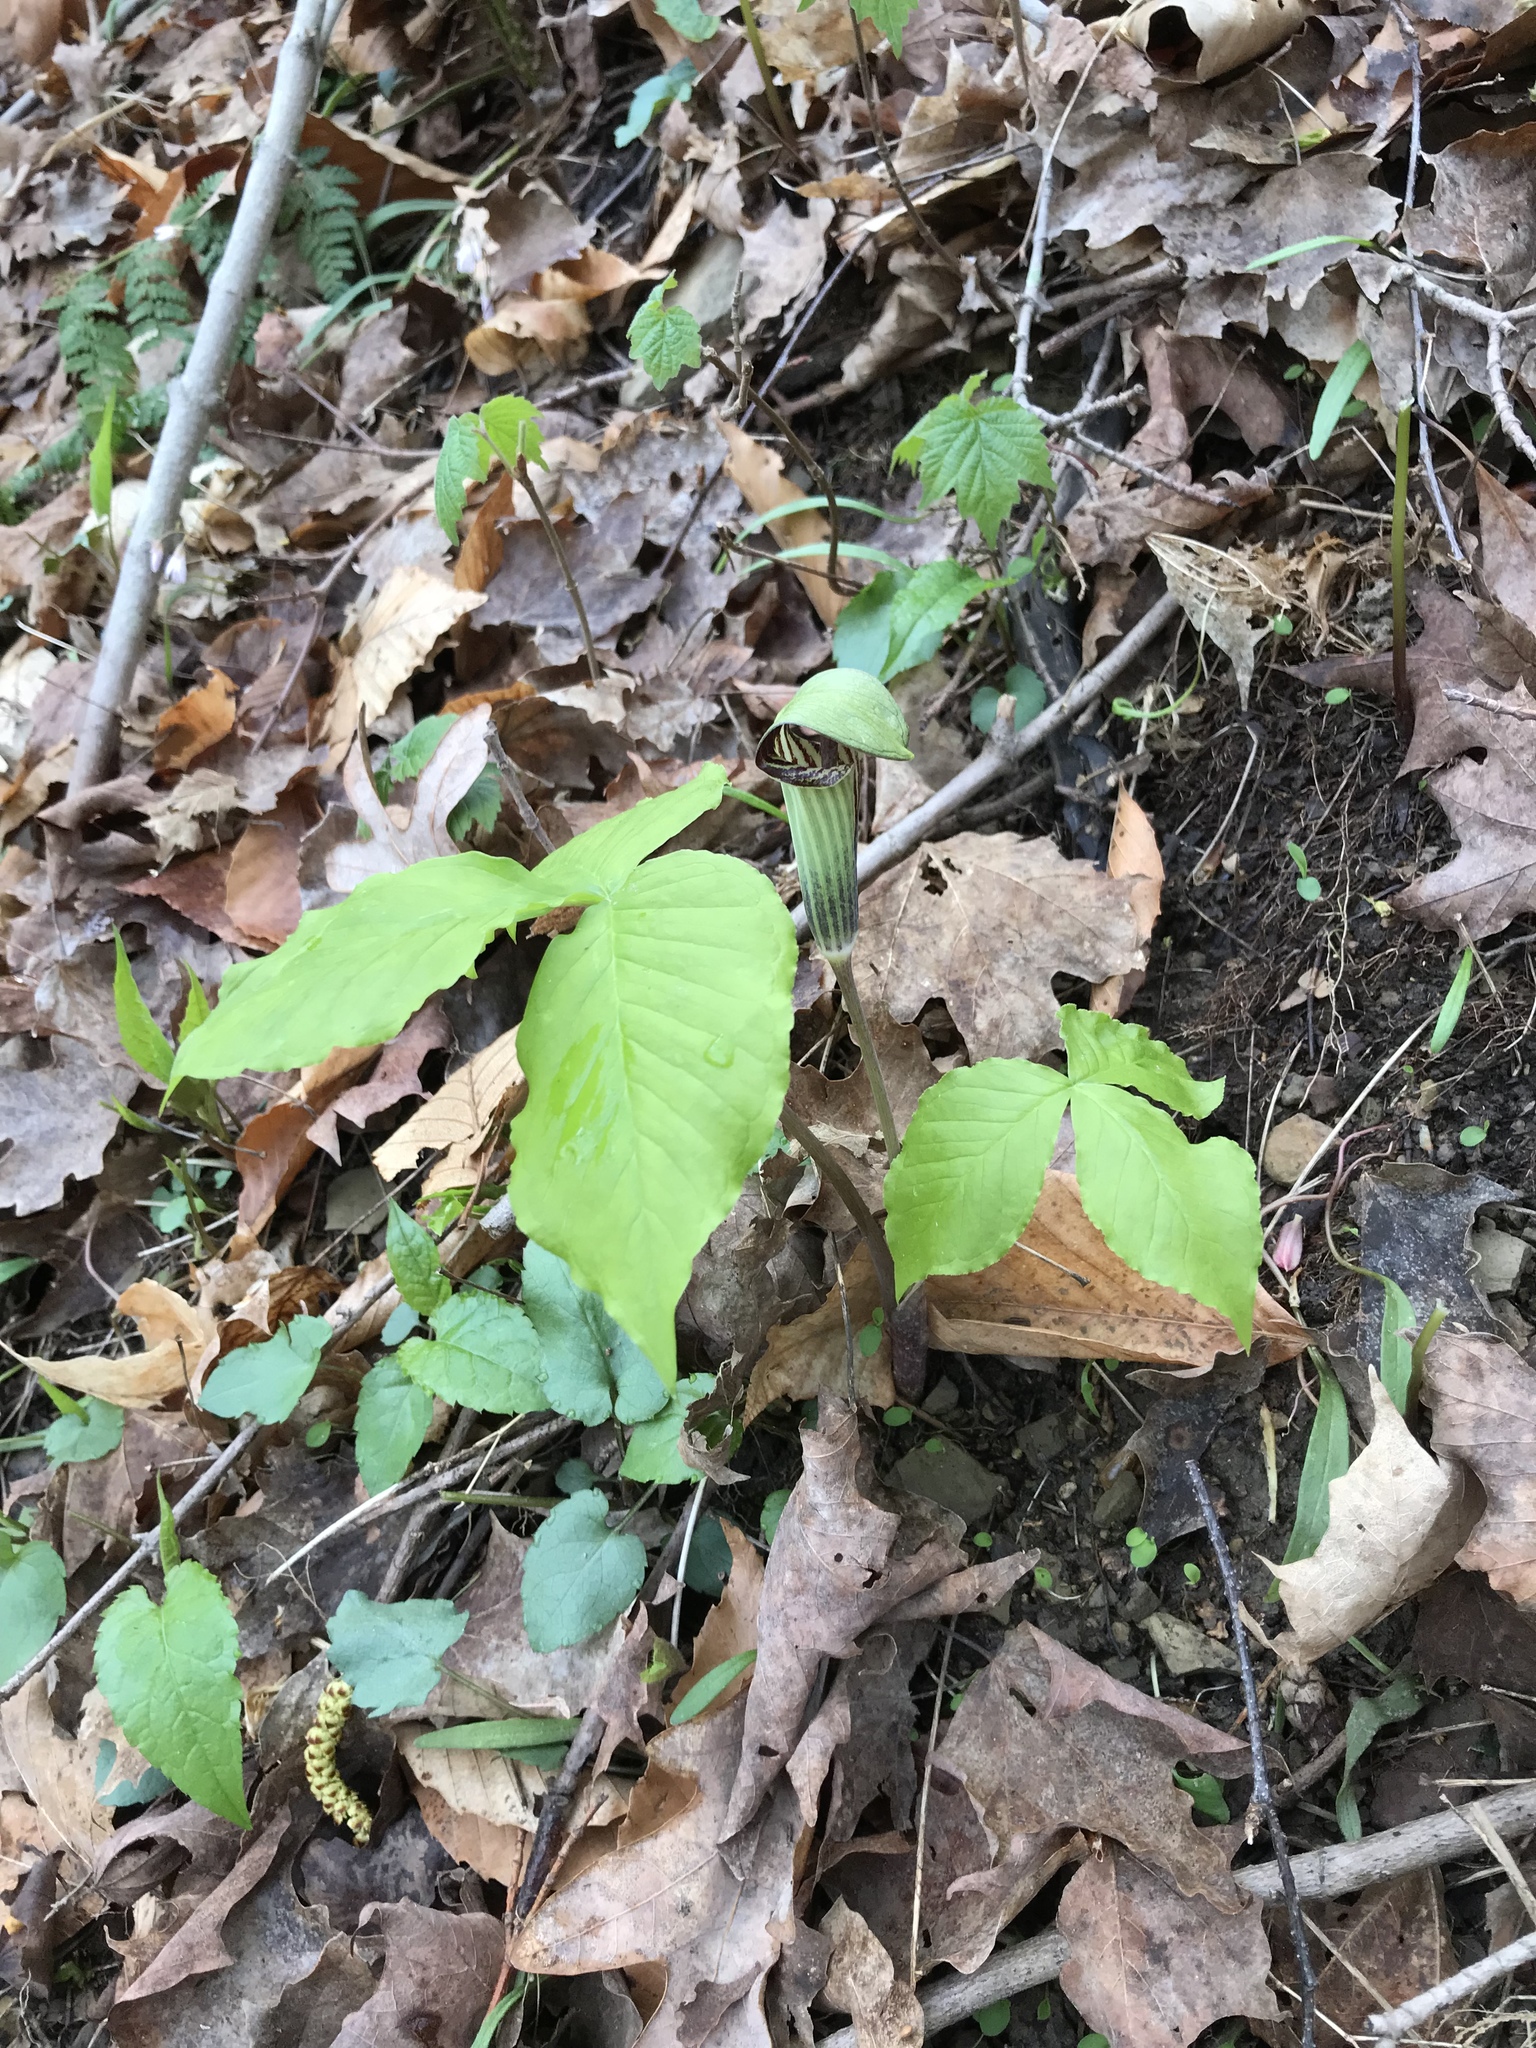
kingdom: Plantae
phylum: Tracheophyta
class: Liliopsida
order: Alismatales
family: Araceae
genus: Arisaema
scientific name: Arisaema triphyllum
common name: Jack-in-the-pulpit
